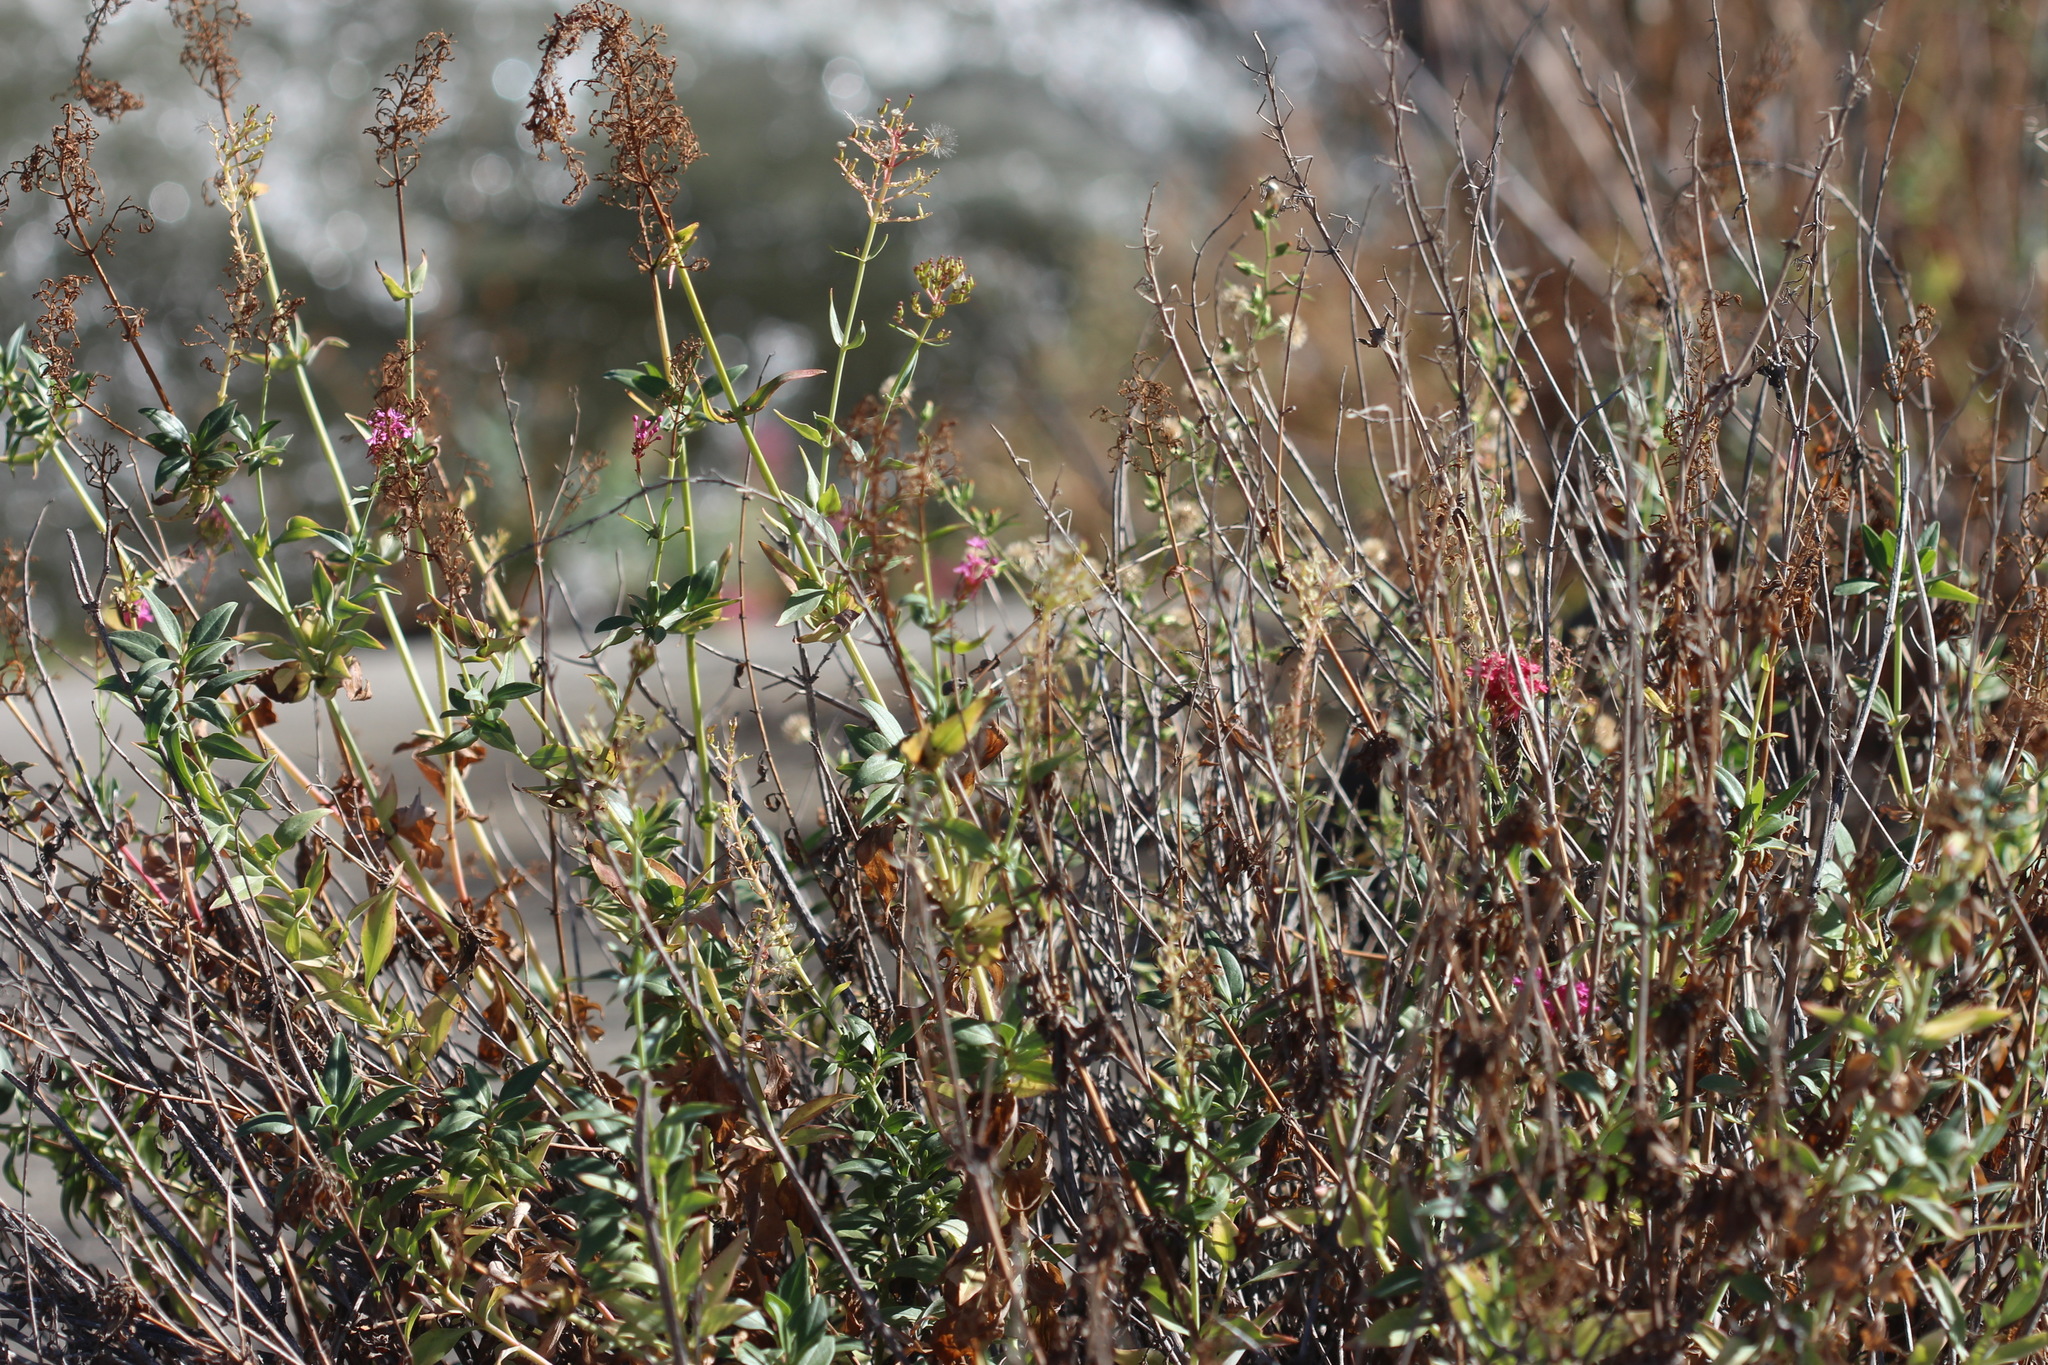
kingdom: Plantae
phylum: Tracheophyta
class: Magnoliopsida
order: Dipsacales
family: Caprifoliaceae
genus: Centranthus
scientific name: Centranthus ruber
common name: Red valerian
